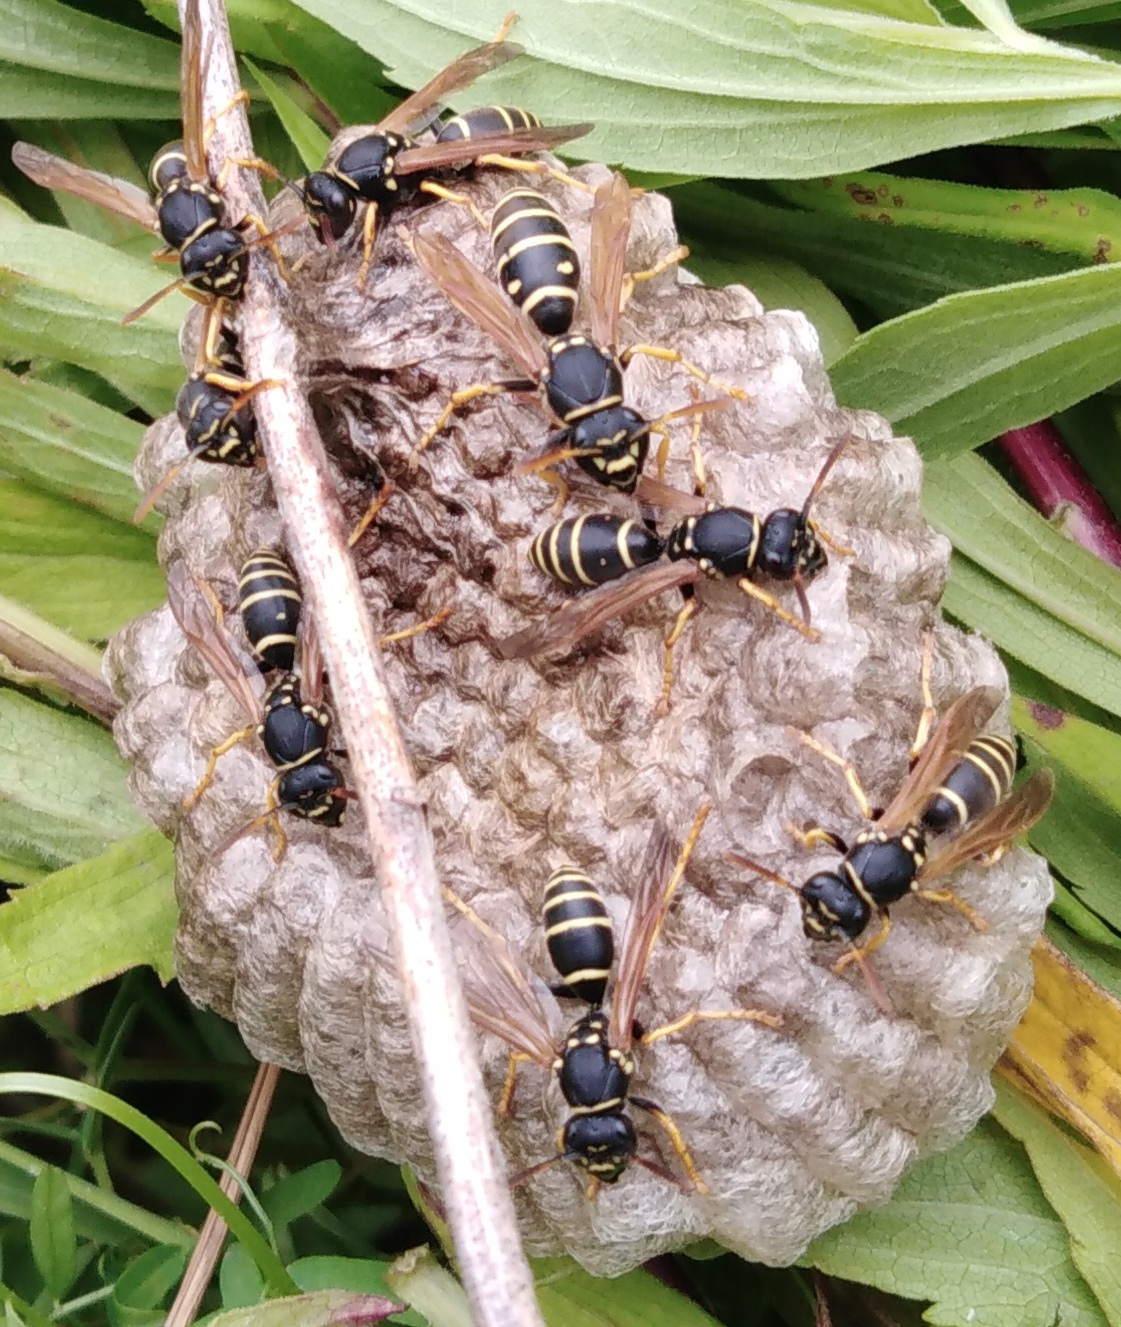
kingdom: Animalia
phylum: Arthropoda
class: Insecta
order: Hymenoptera
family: Eumenidae
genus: Polistes
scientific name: Polistes biglumis
